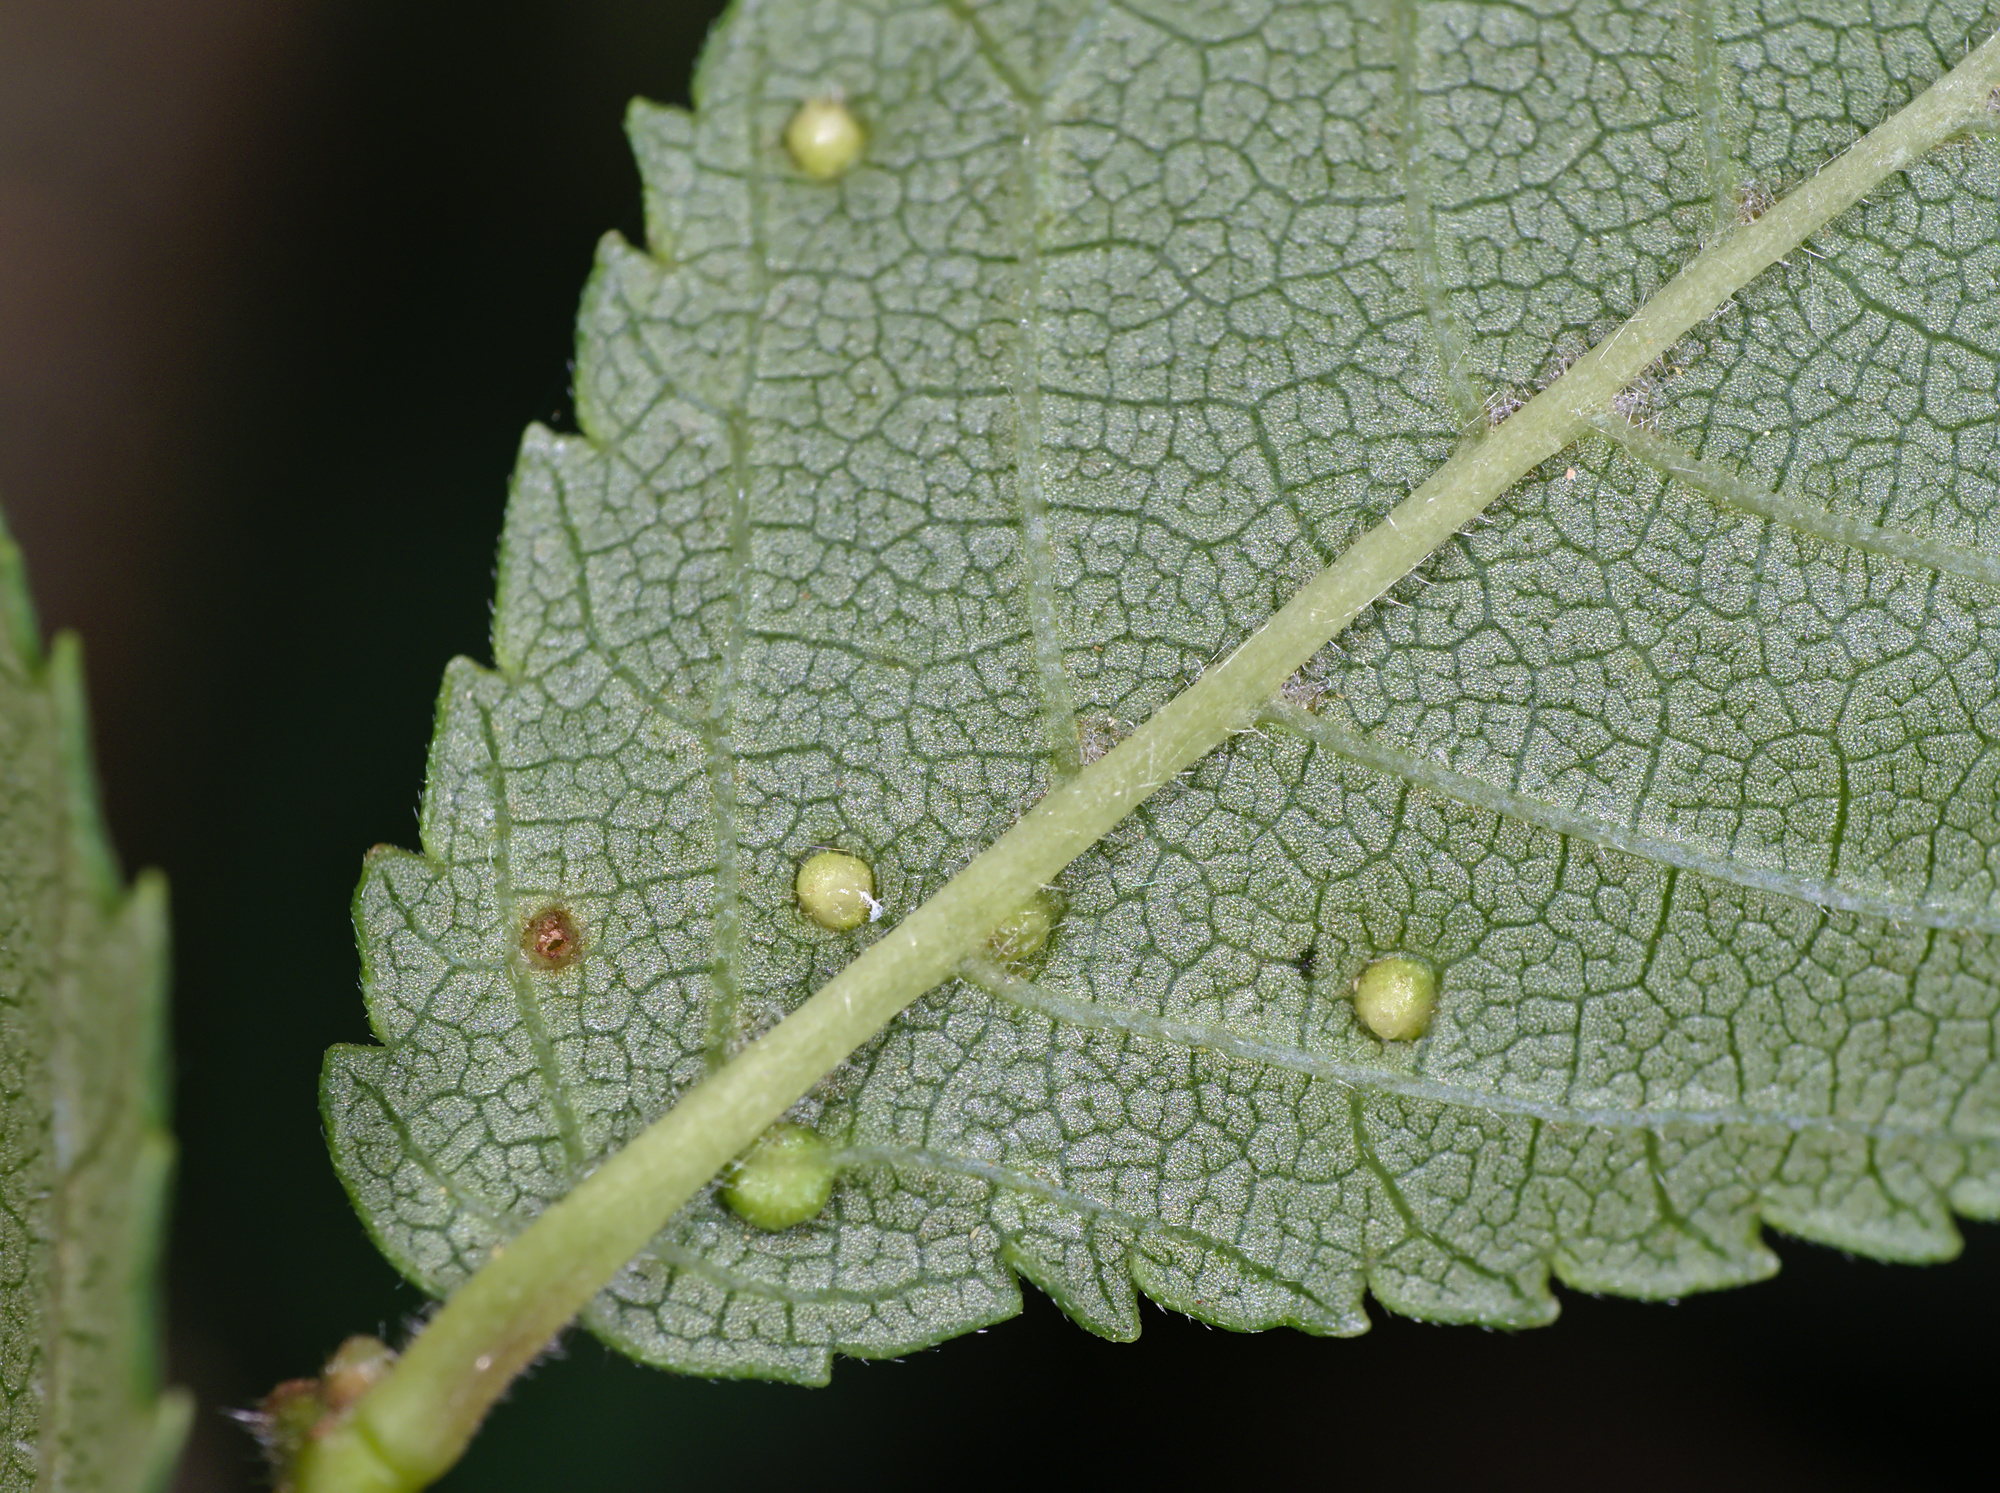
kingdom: Animalia
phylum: Arthropoda
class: Arachnida
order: Trombidiformes
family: Eriophyidae
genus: Aceria
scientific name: Aceria brevipunctata
